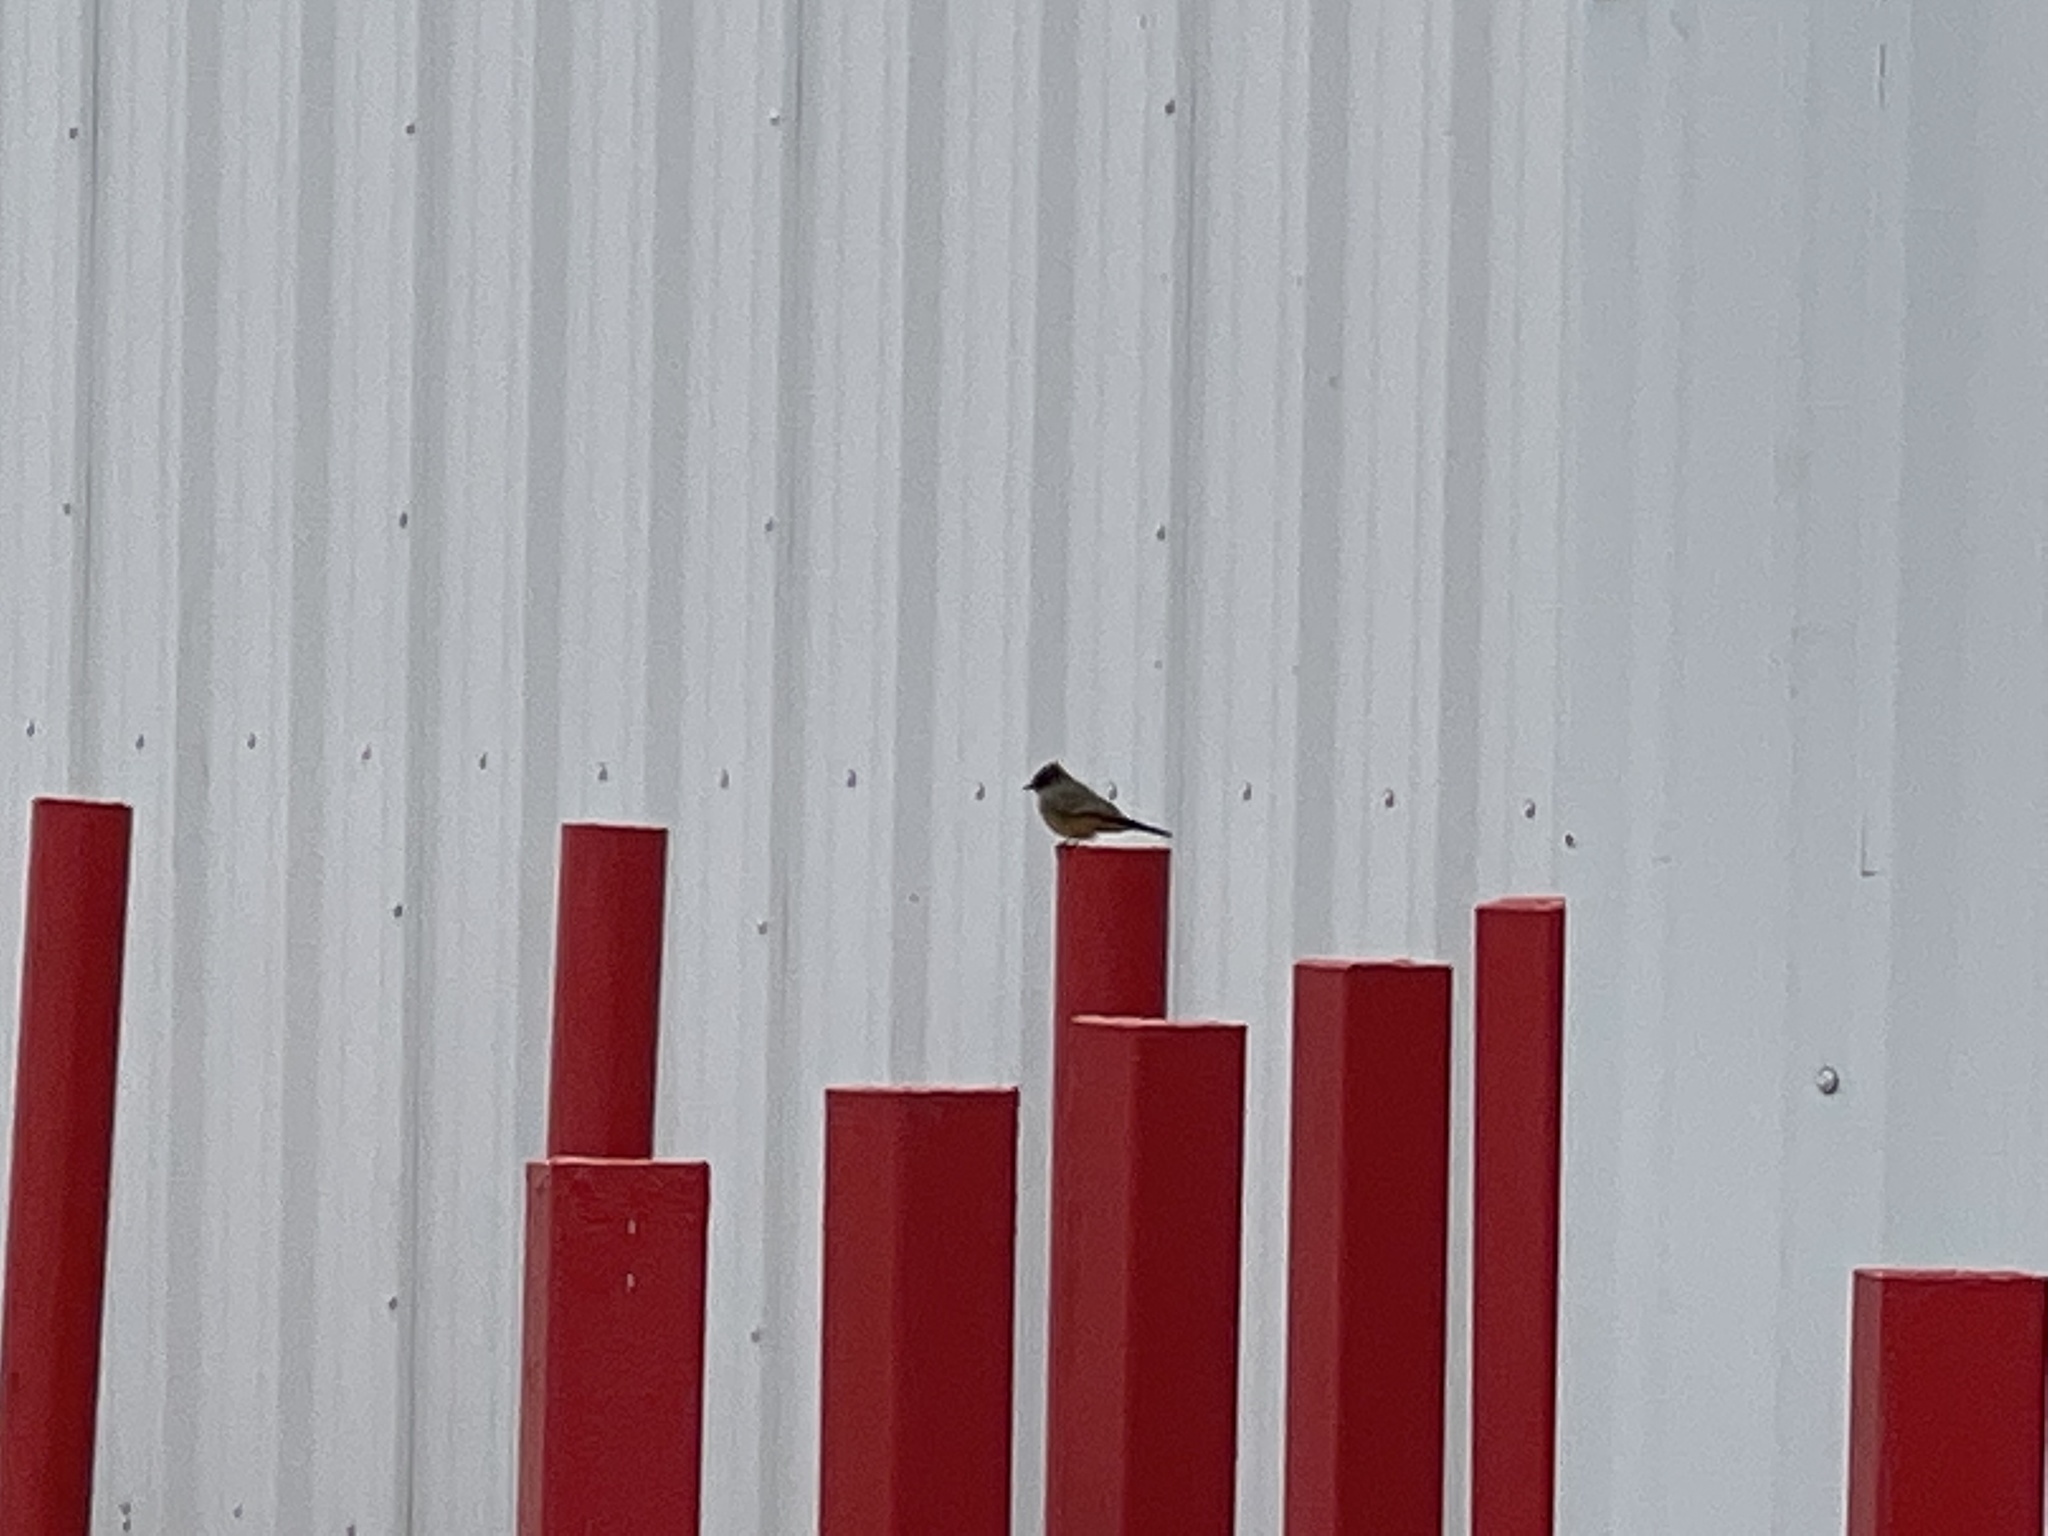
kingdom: Animalia
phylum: Chordata
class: Aves
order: Passeriformes
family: Tyrannidae
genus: Sayornis
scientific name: Sayornis saya
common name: Say's phoebe
